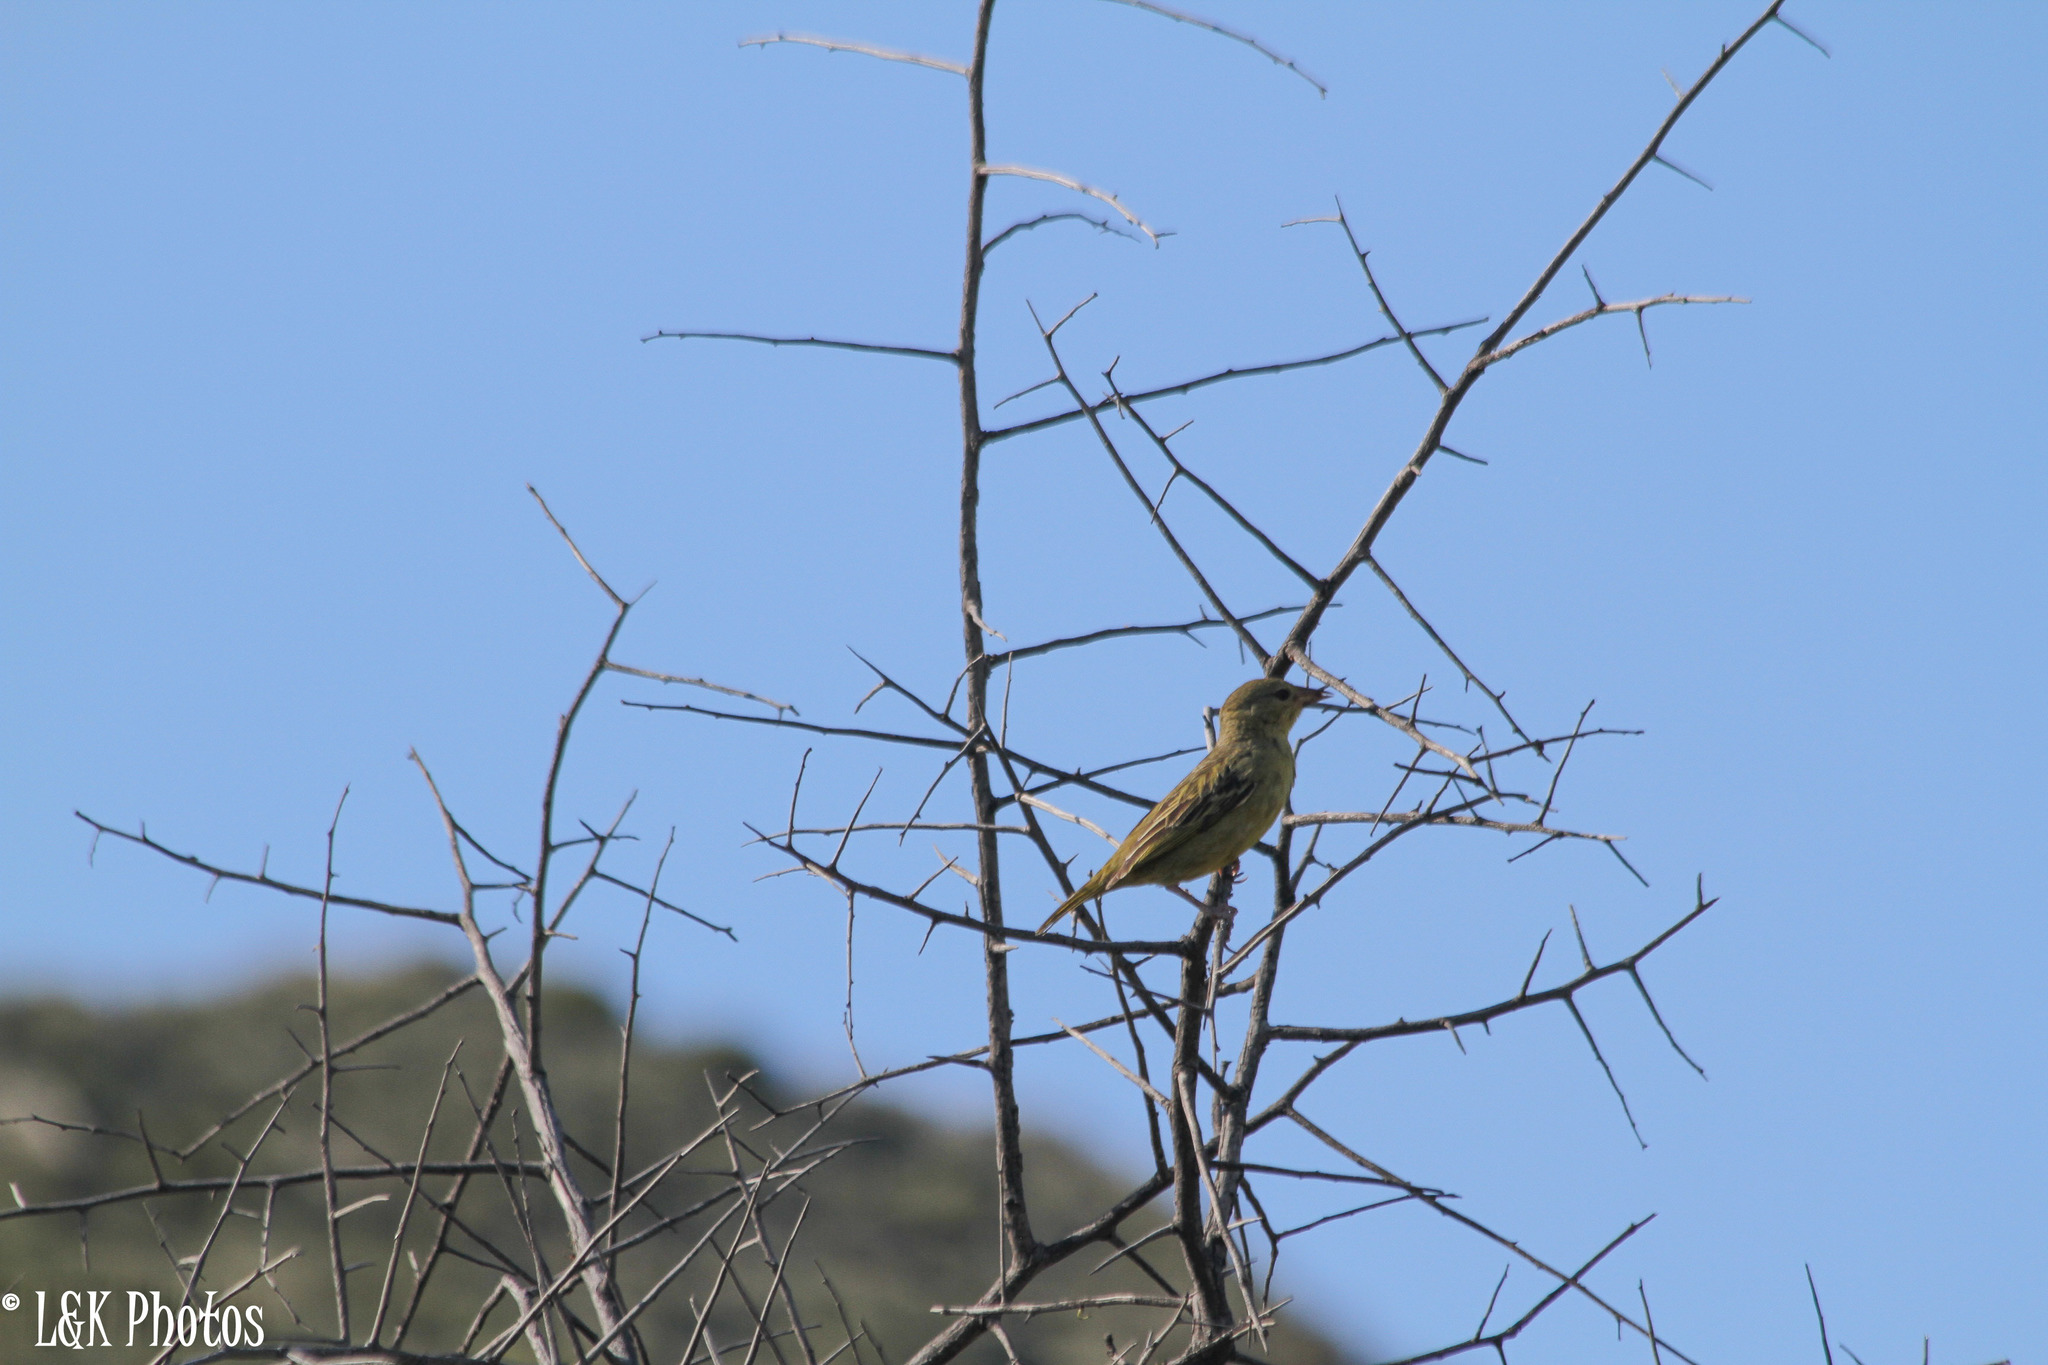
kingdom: Animalia
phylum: Chordata
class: Aves
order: Passeriformes
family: Ploceidae
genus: Ploceus
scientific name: Ploceus capensis
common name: Cape weaver
